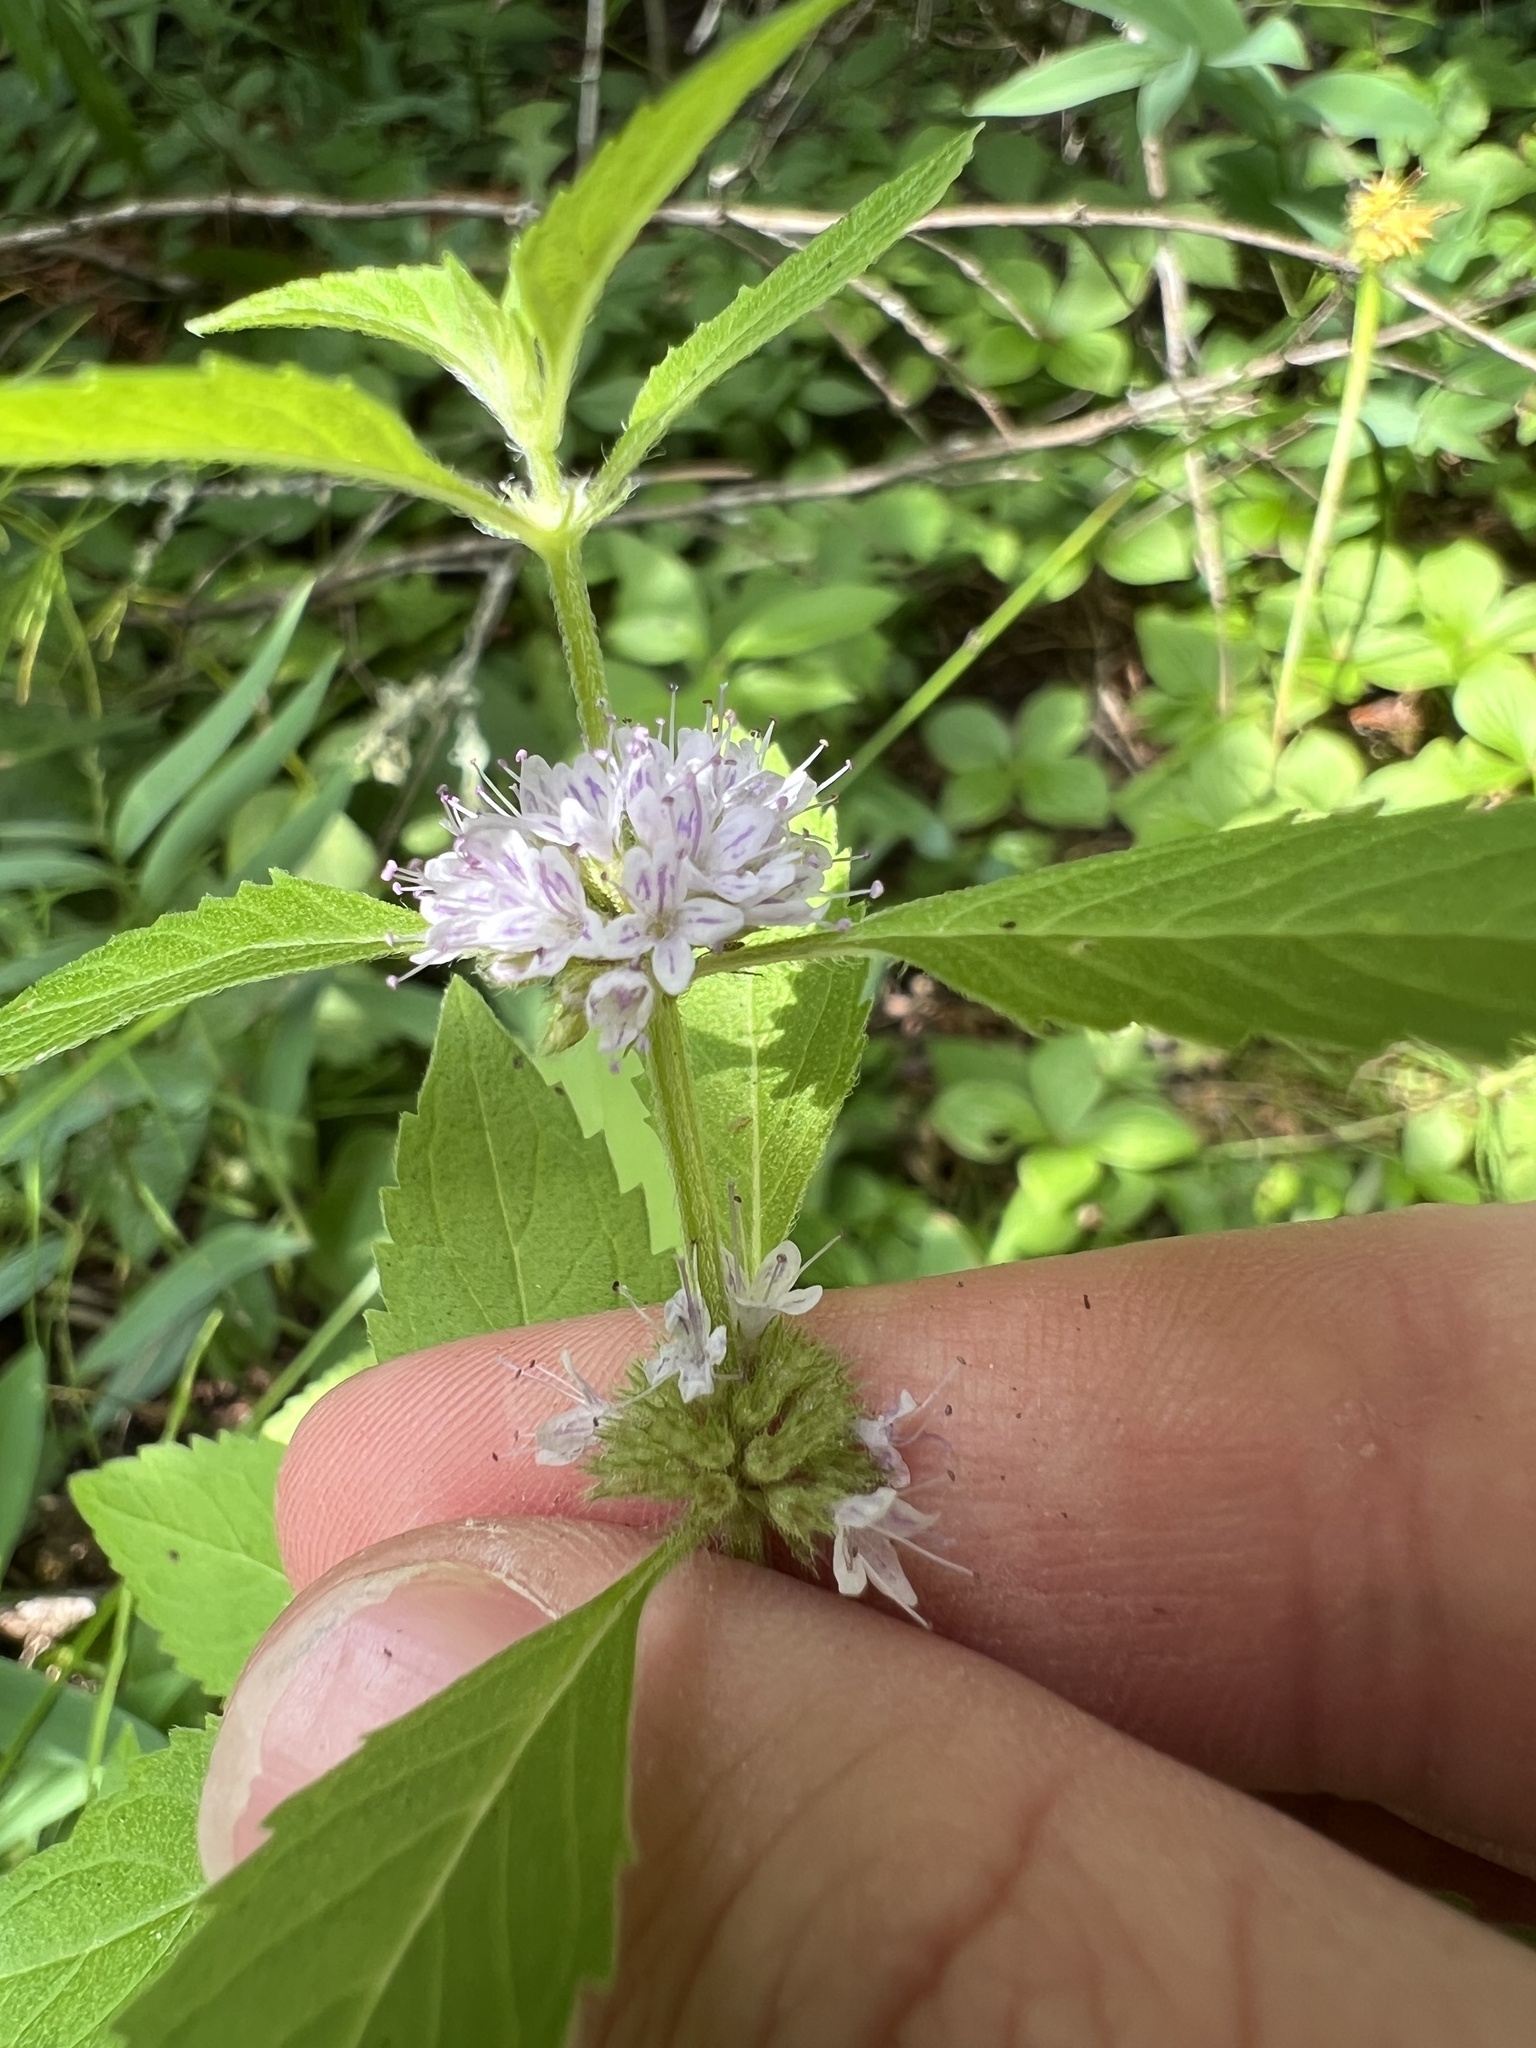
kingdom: Plantae
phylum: Tracheophyta
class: Magnoliopsida
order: Lamiales
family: Lamiaceae
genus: Mentha
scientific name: Mentha canadensis
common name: American corn mint
